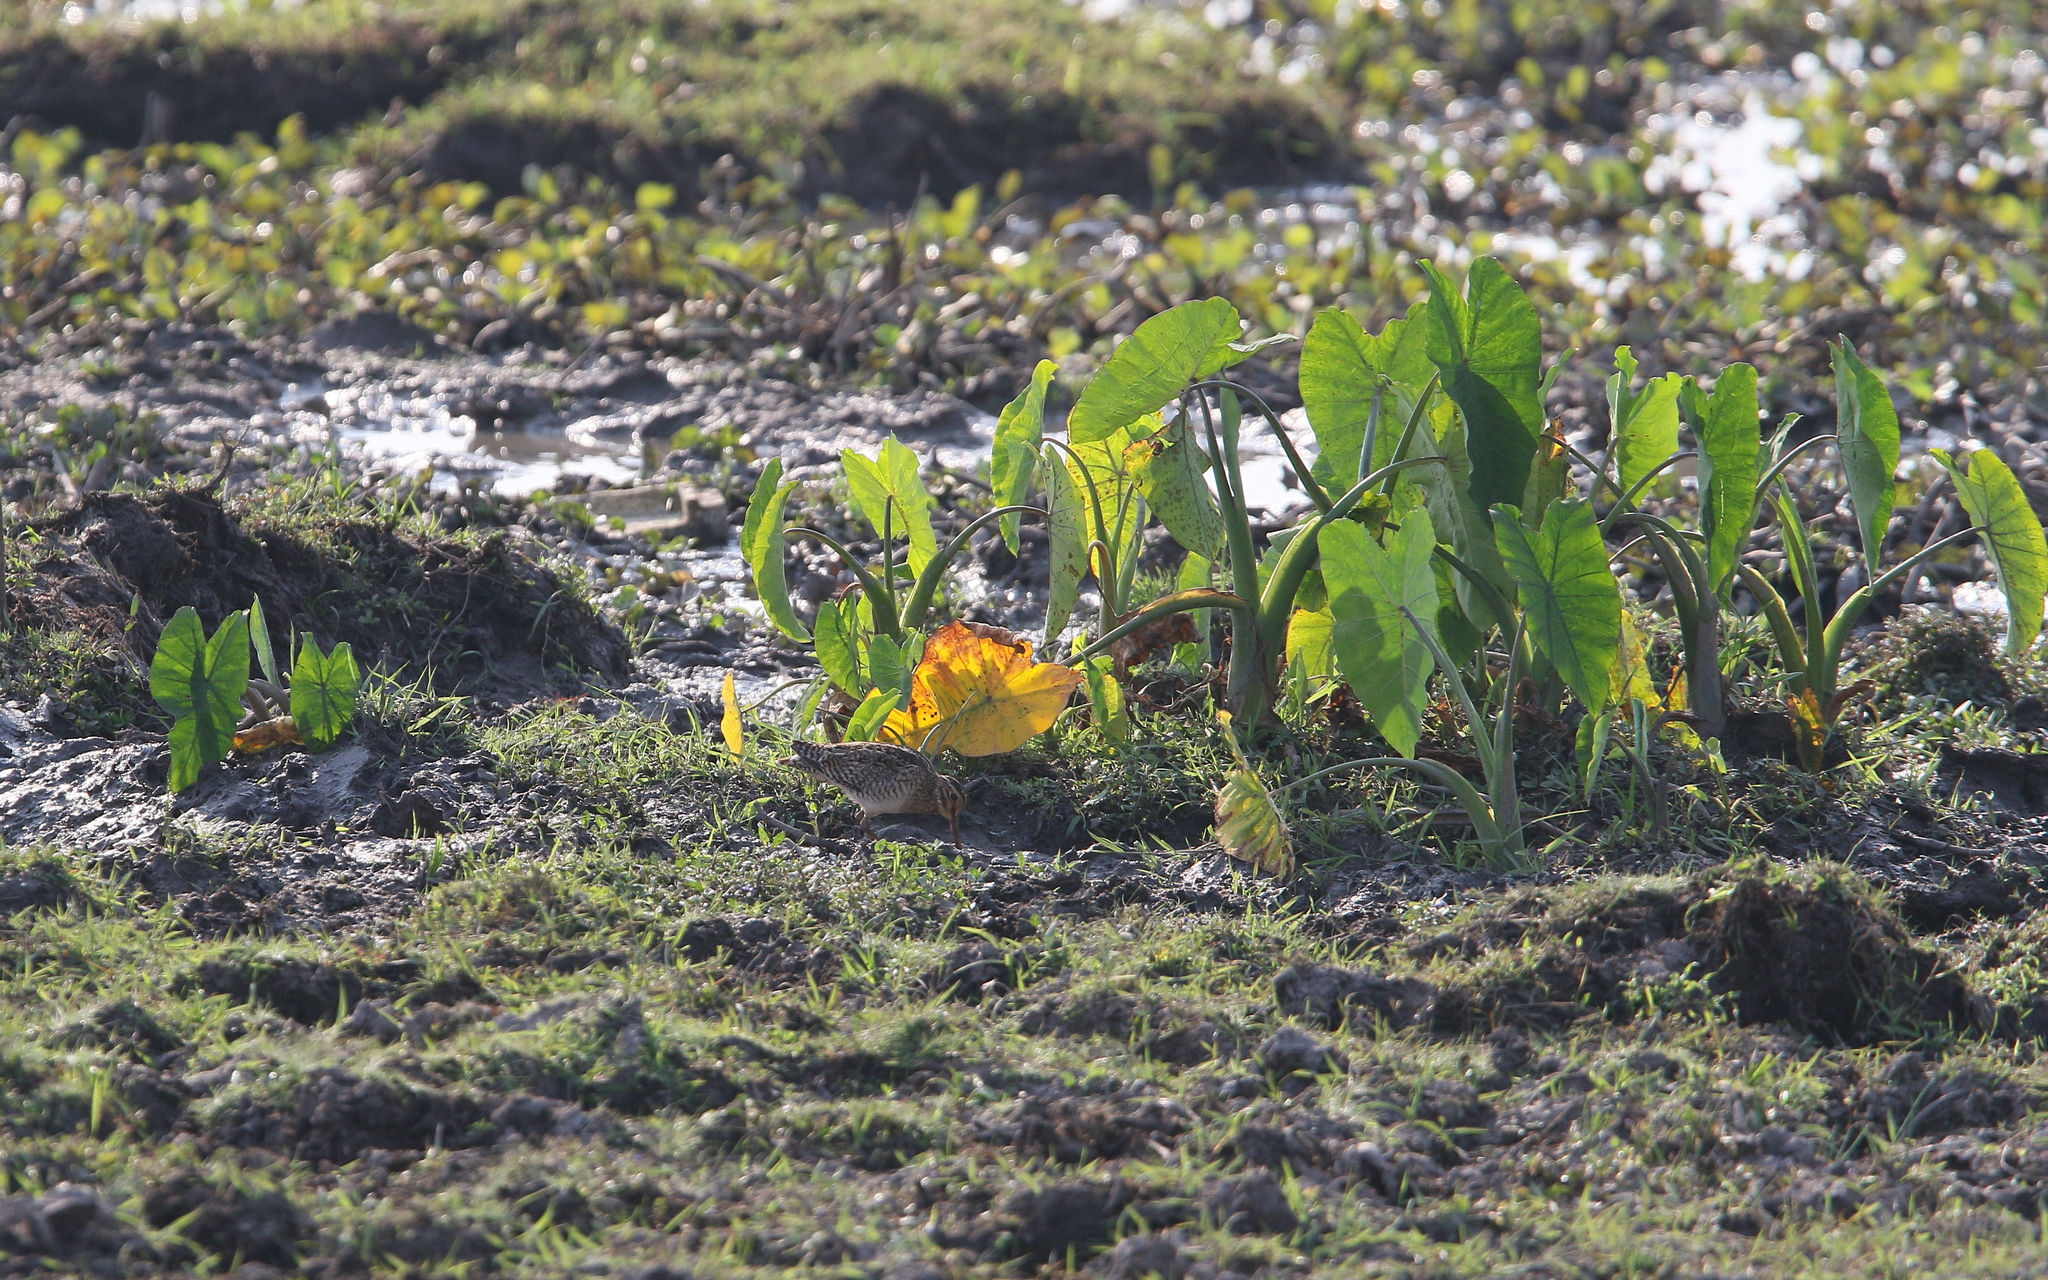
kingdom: Animalia
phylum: Chordata
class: Aves
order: Charadriiformes
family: Scolopacidae
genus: Gallinago
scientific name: Gallinago stenura
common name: Pin-tailed snipe
